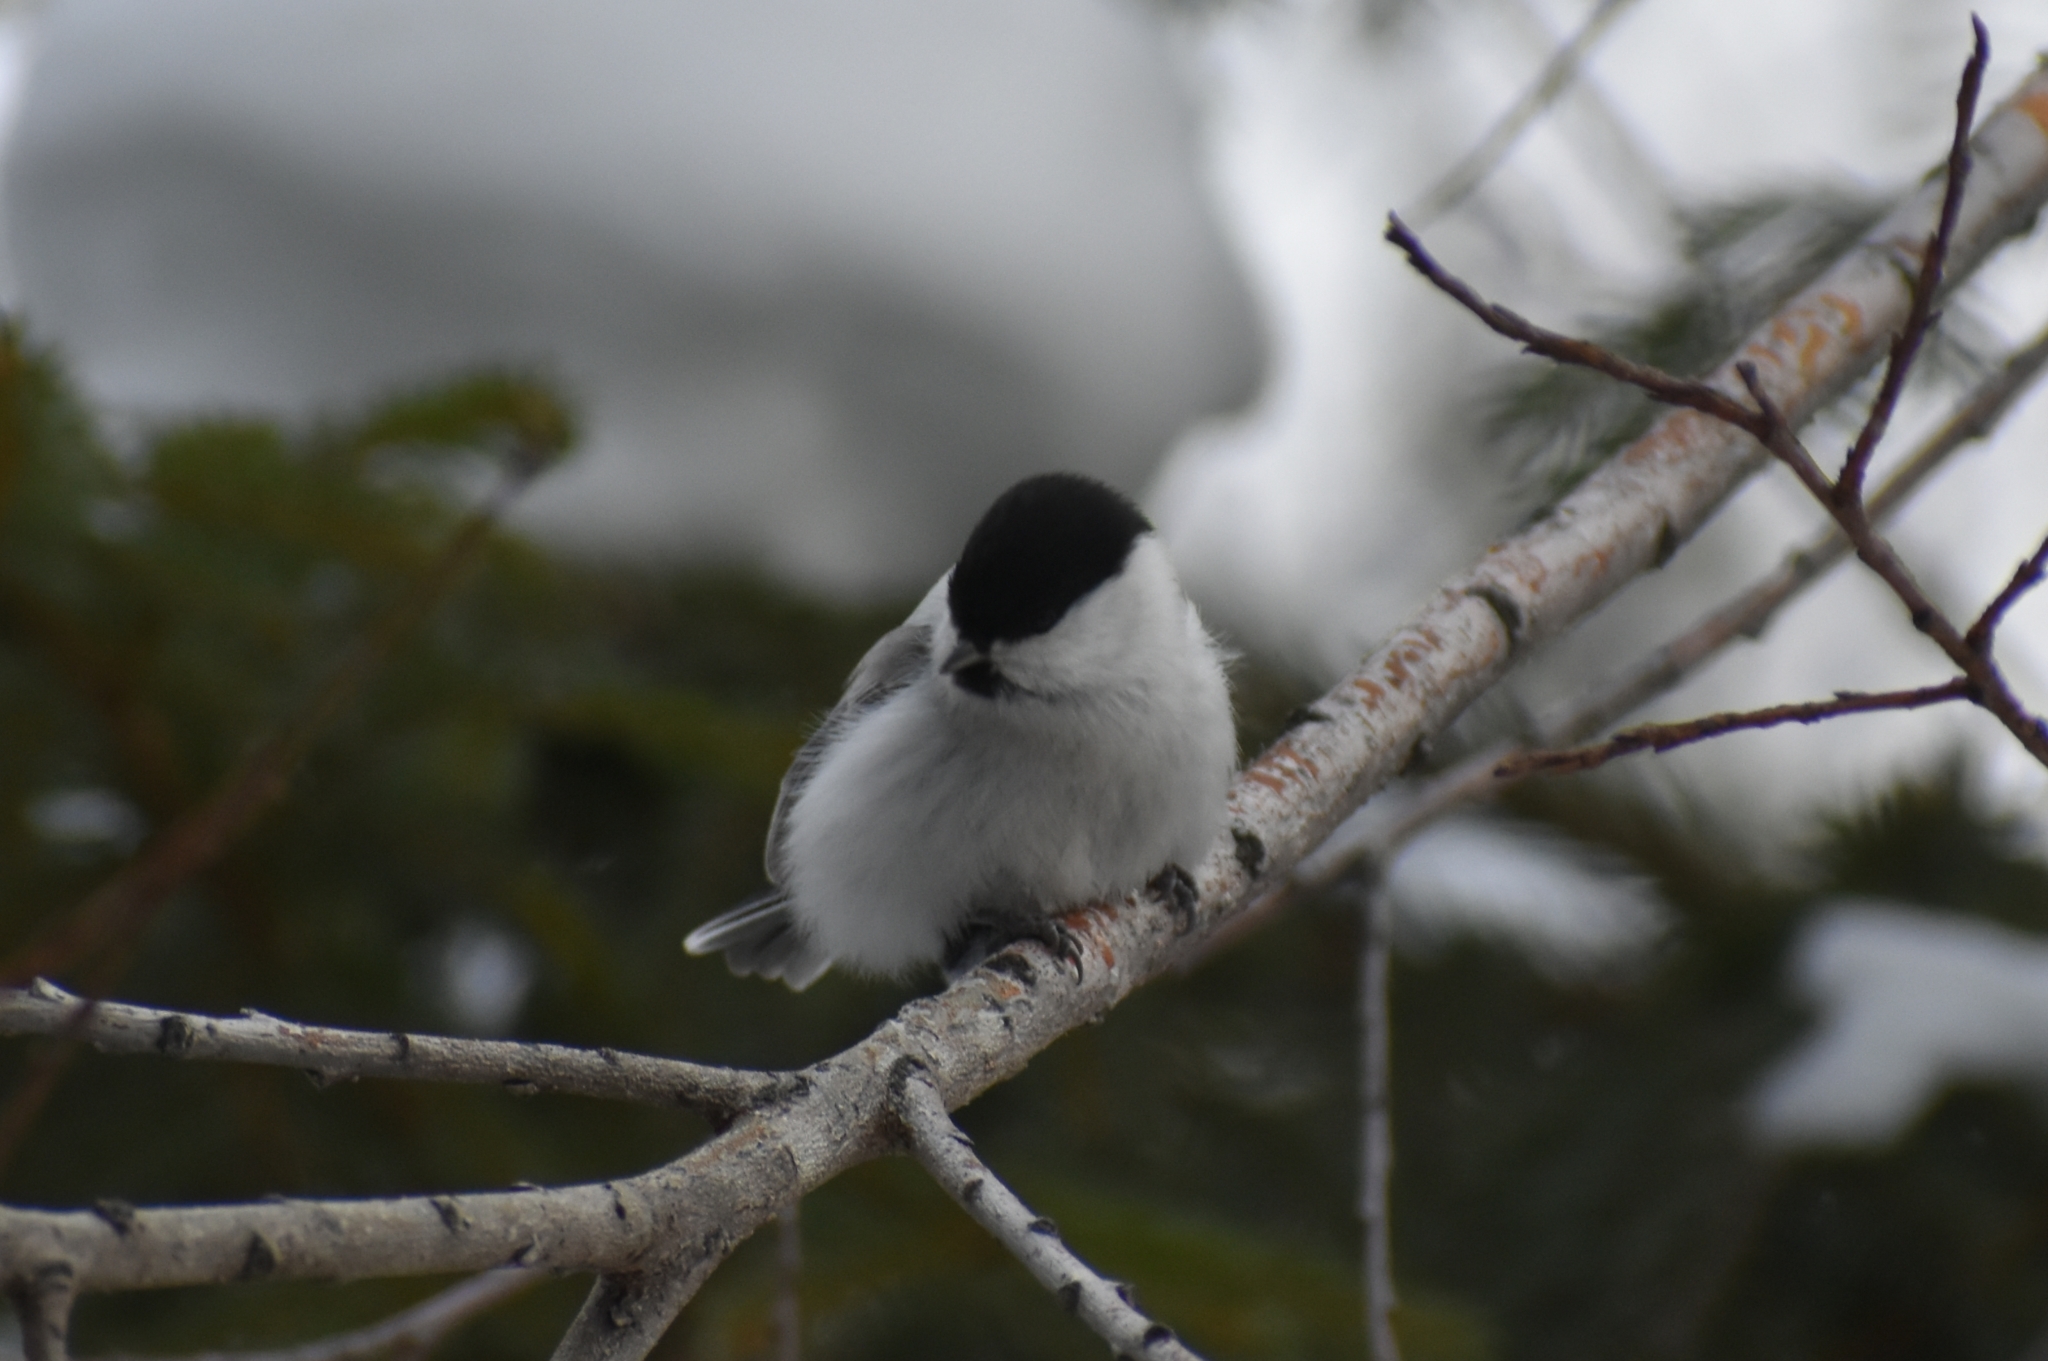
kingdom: Animalia
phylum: Chordata
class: Aves
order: Passeriformes
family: Paridae
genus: Poecile
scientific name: Poecile montanus
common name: Willow tit
